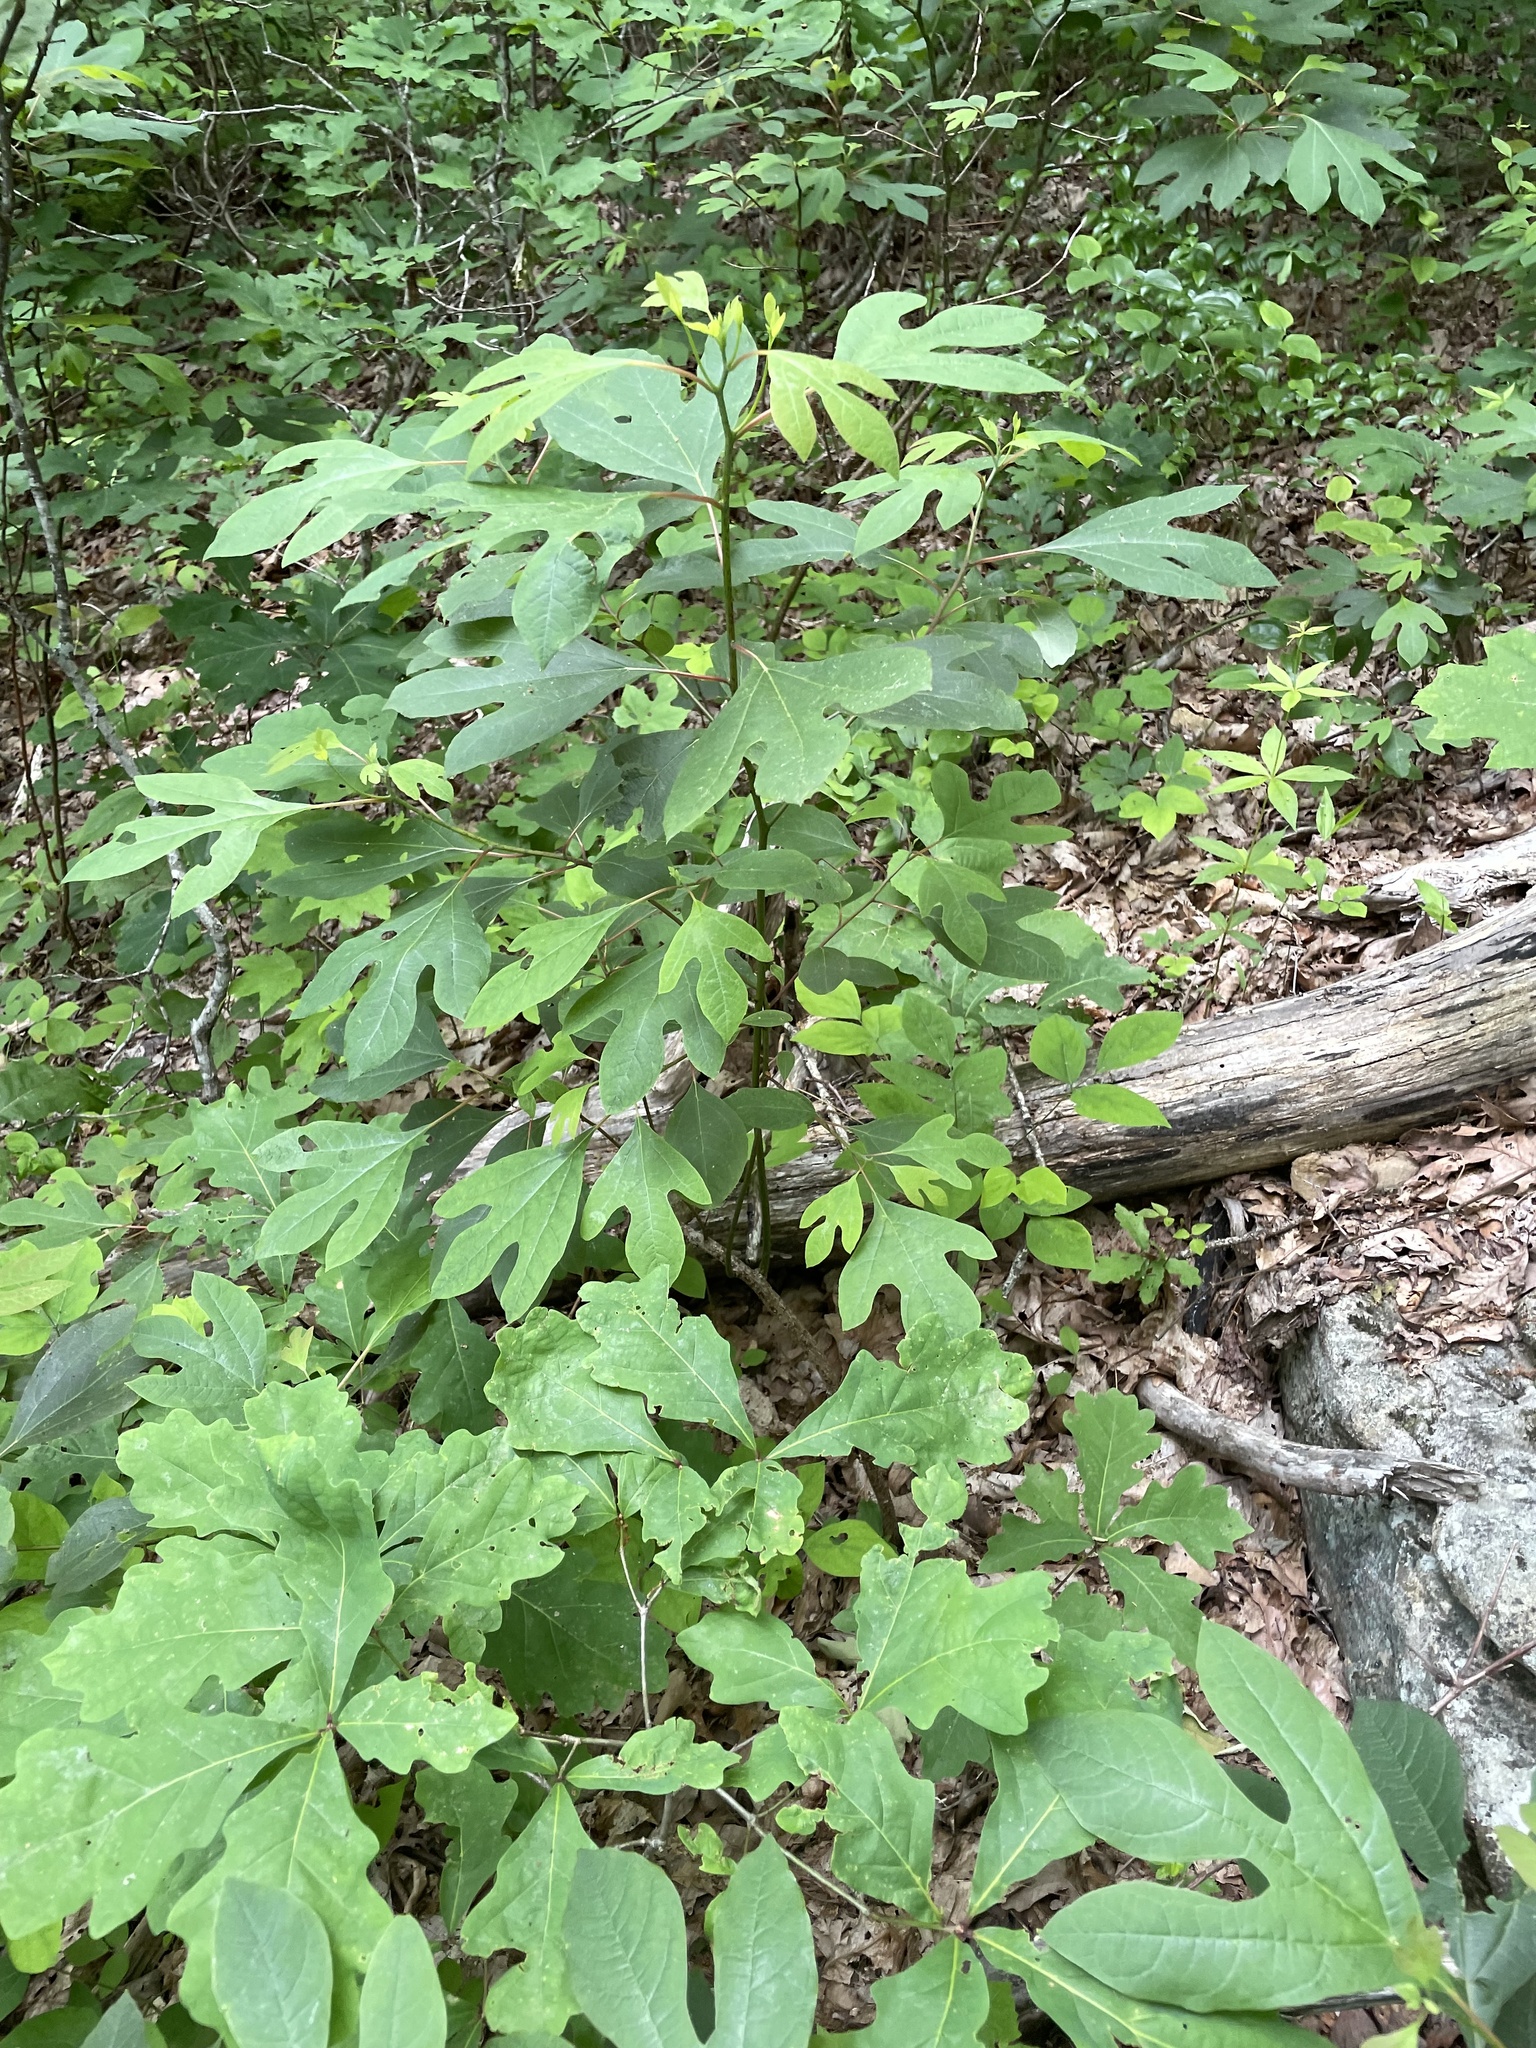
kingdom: Plantae
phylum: Tracheophyta
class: Magnoliopsida
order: Laurales
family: Lauraceae
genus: Sassafras
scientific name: Sassafras albidum
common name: Sassafras
